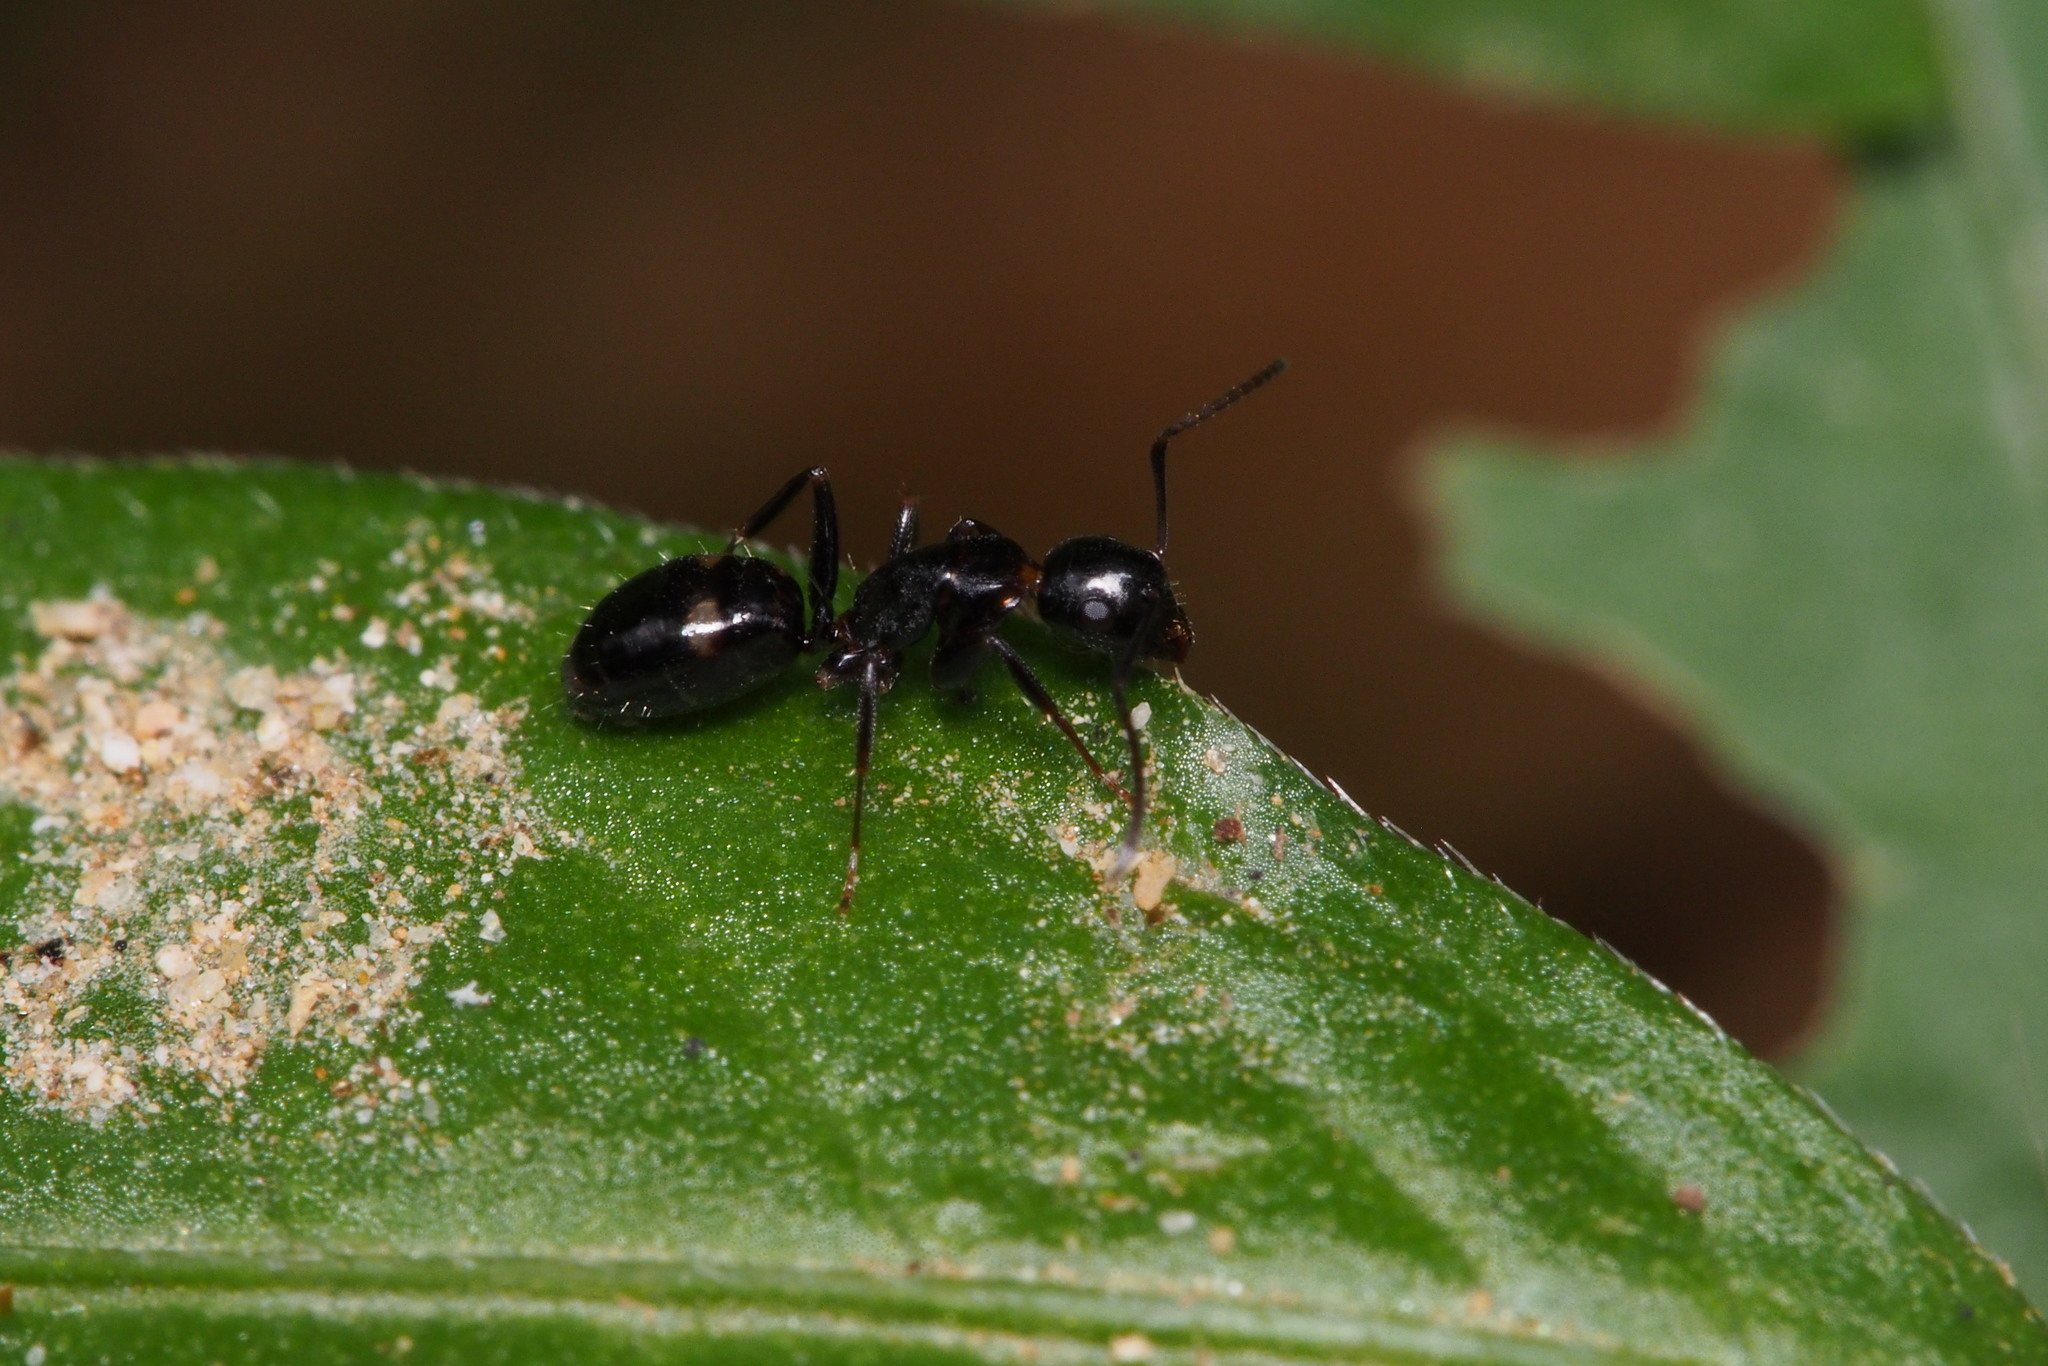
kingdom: Animalia
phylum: Arthropoda
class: Insecta
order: Hymenoptera
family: Formicidae
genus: Camponotus
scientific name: Camponotus quadrinotatus
